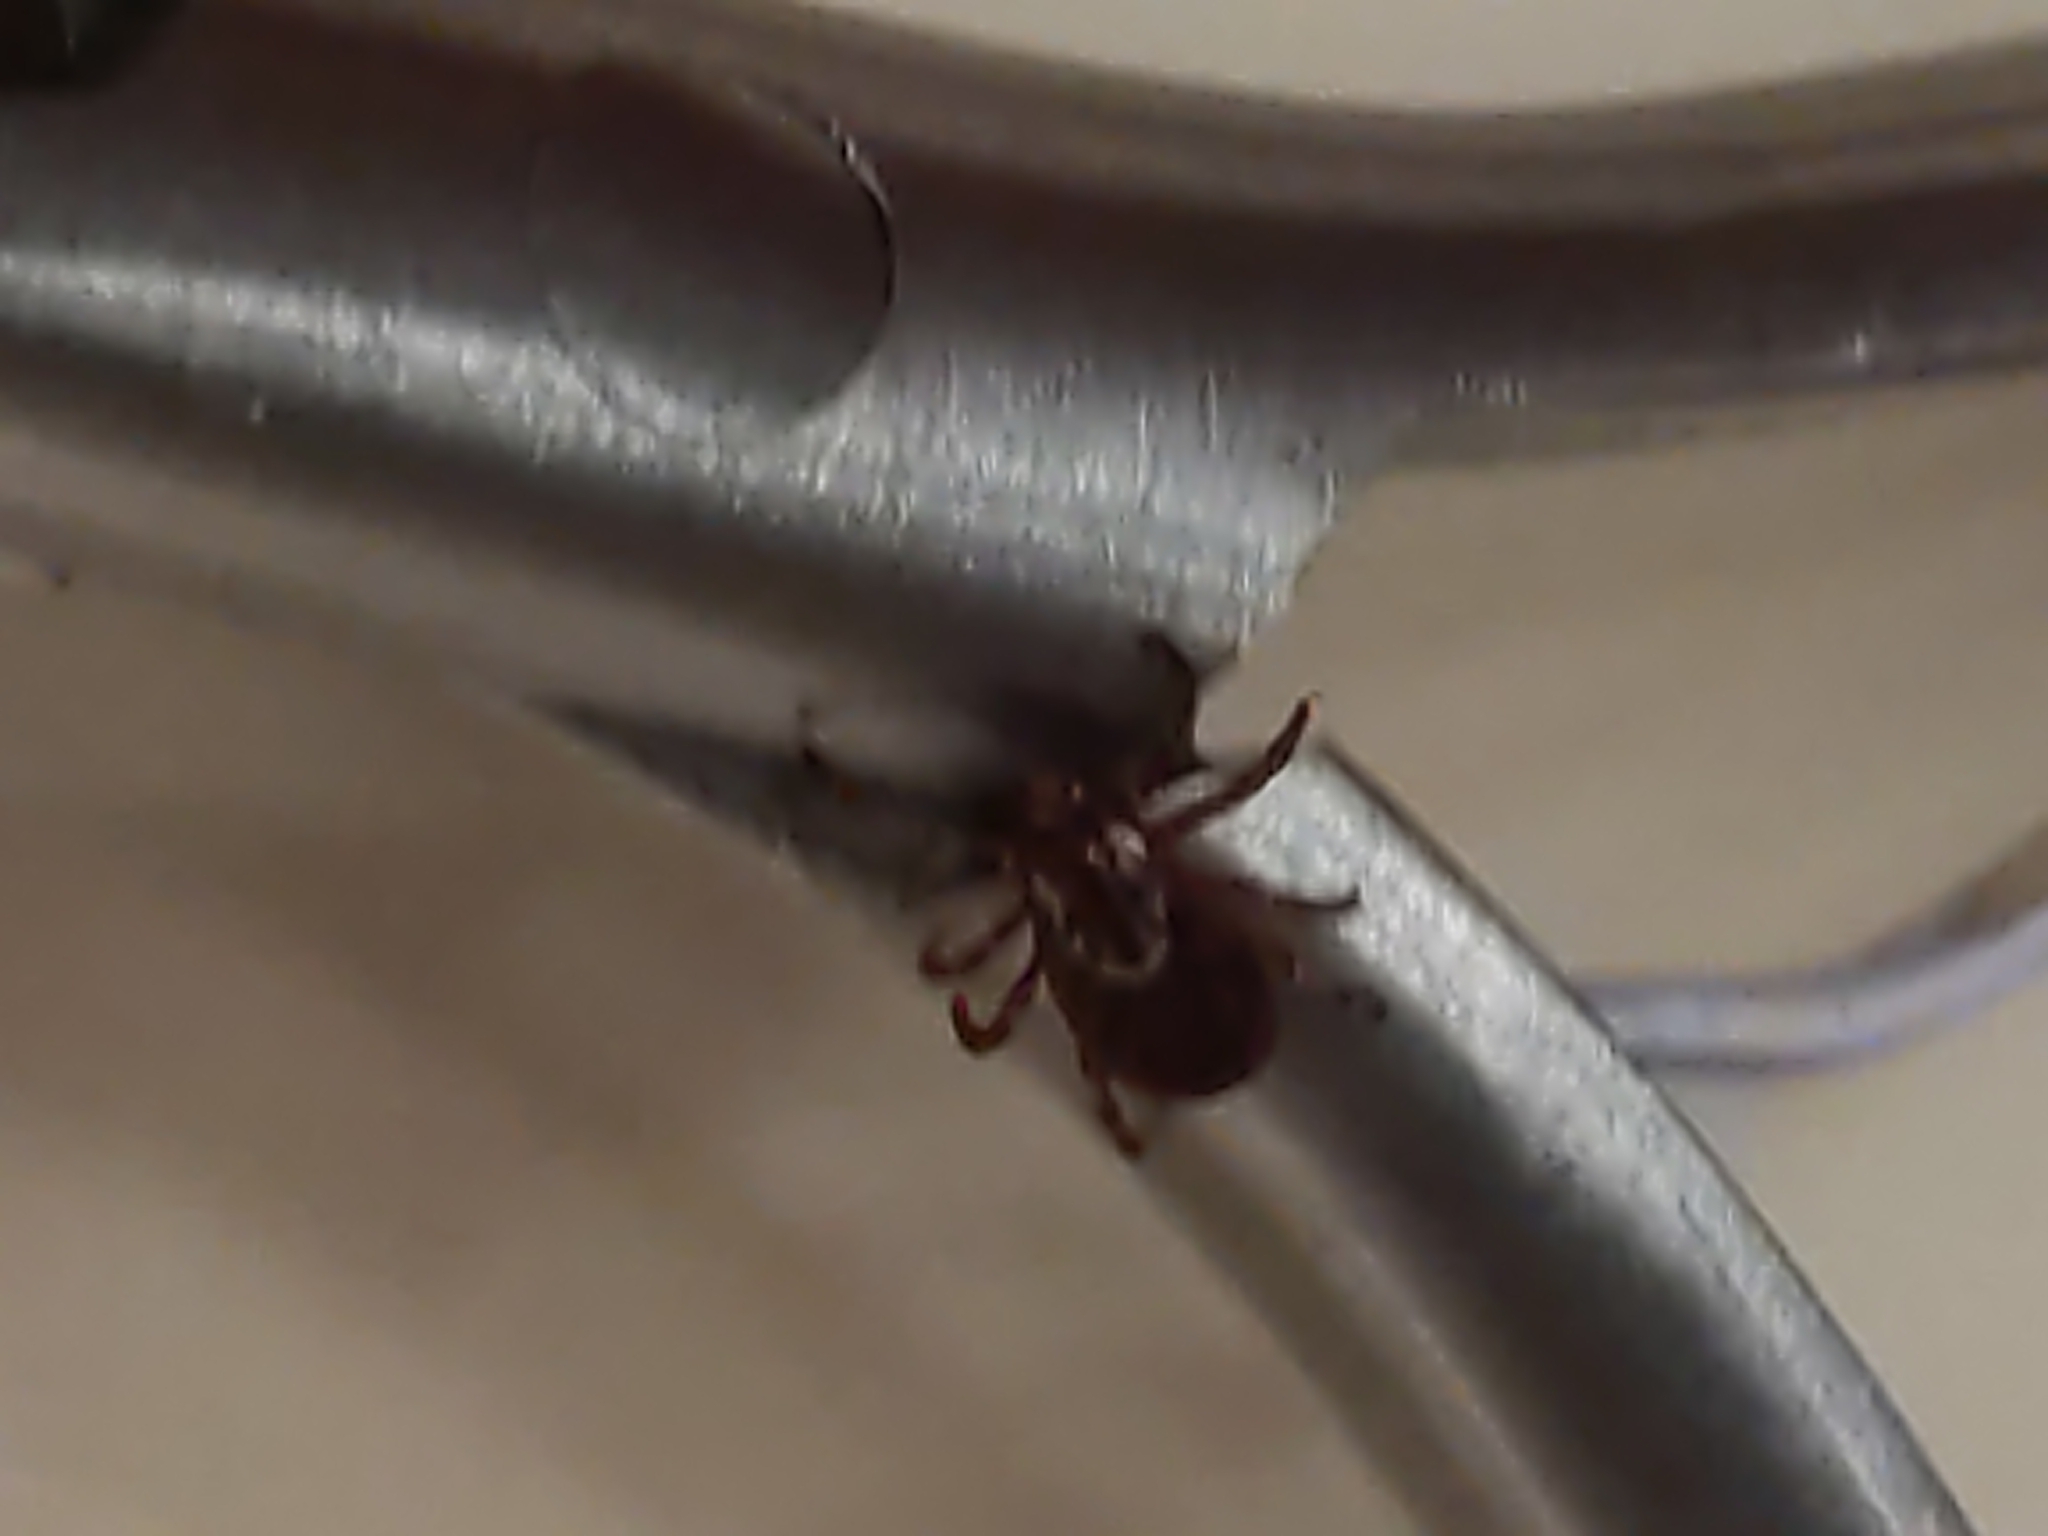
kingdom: Animalia
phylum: Arthropoda
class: Arachnida
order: Ixodida
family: Ixodidae
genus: Dermacentor
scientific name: Dermacentor variabilis
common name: American dog tick
